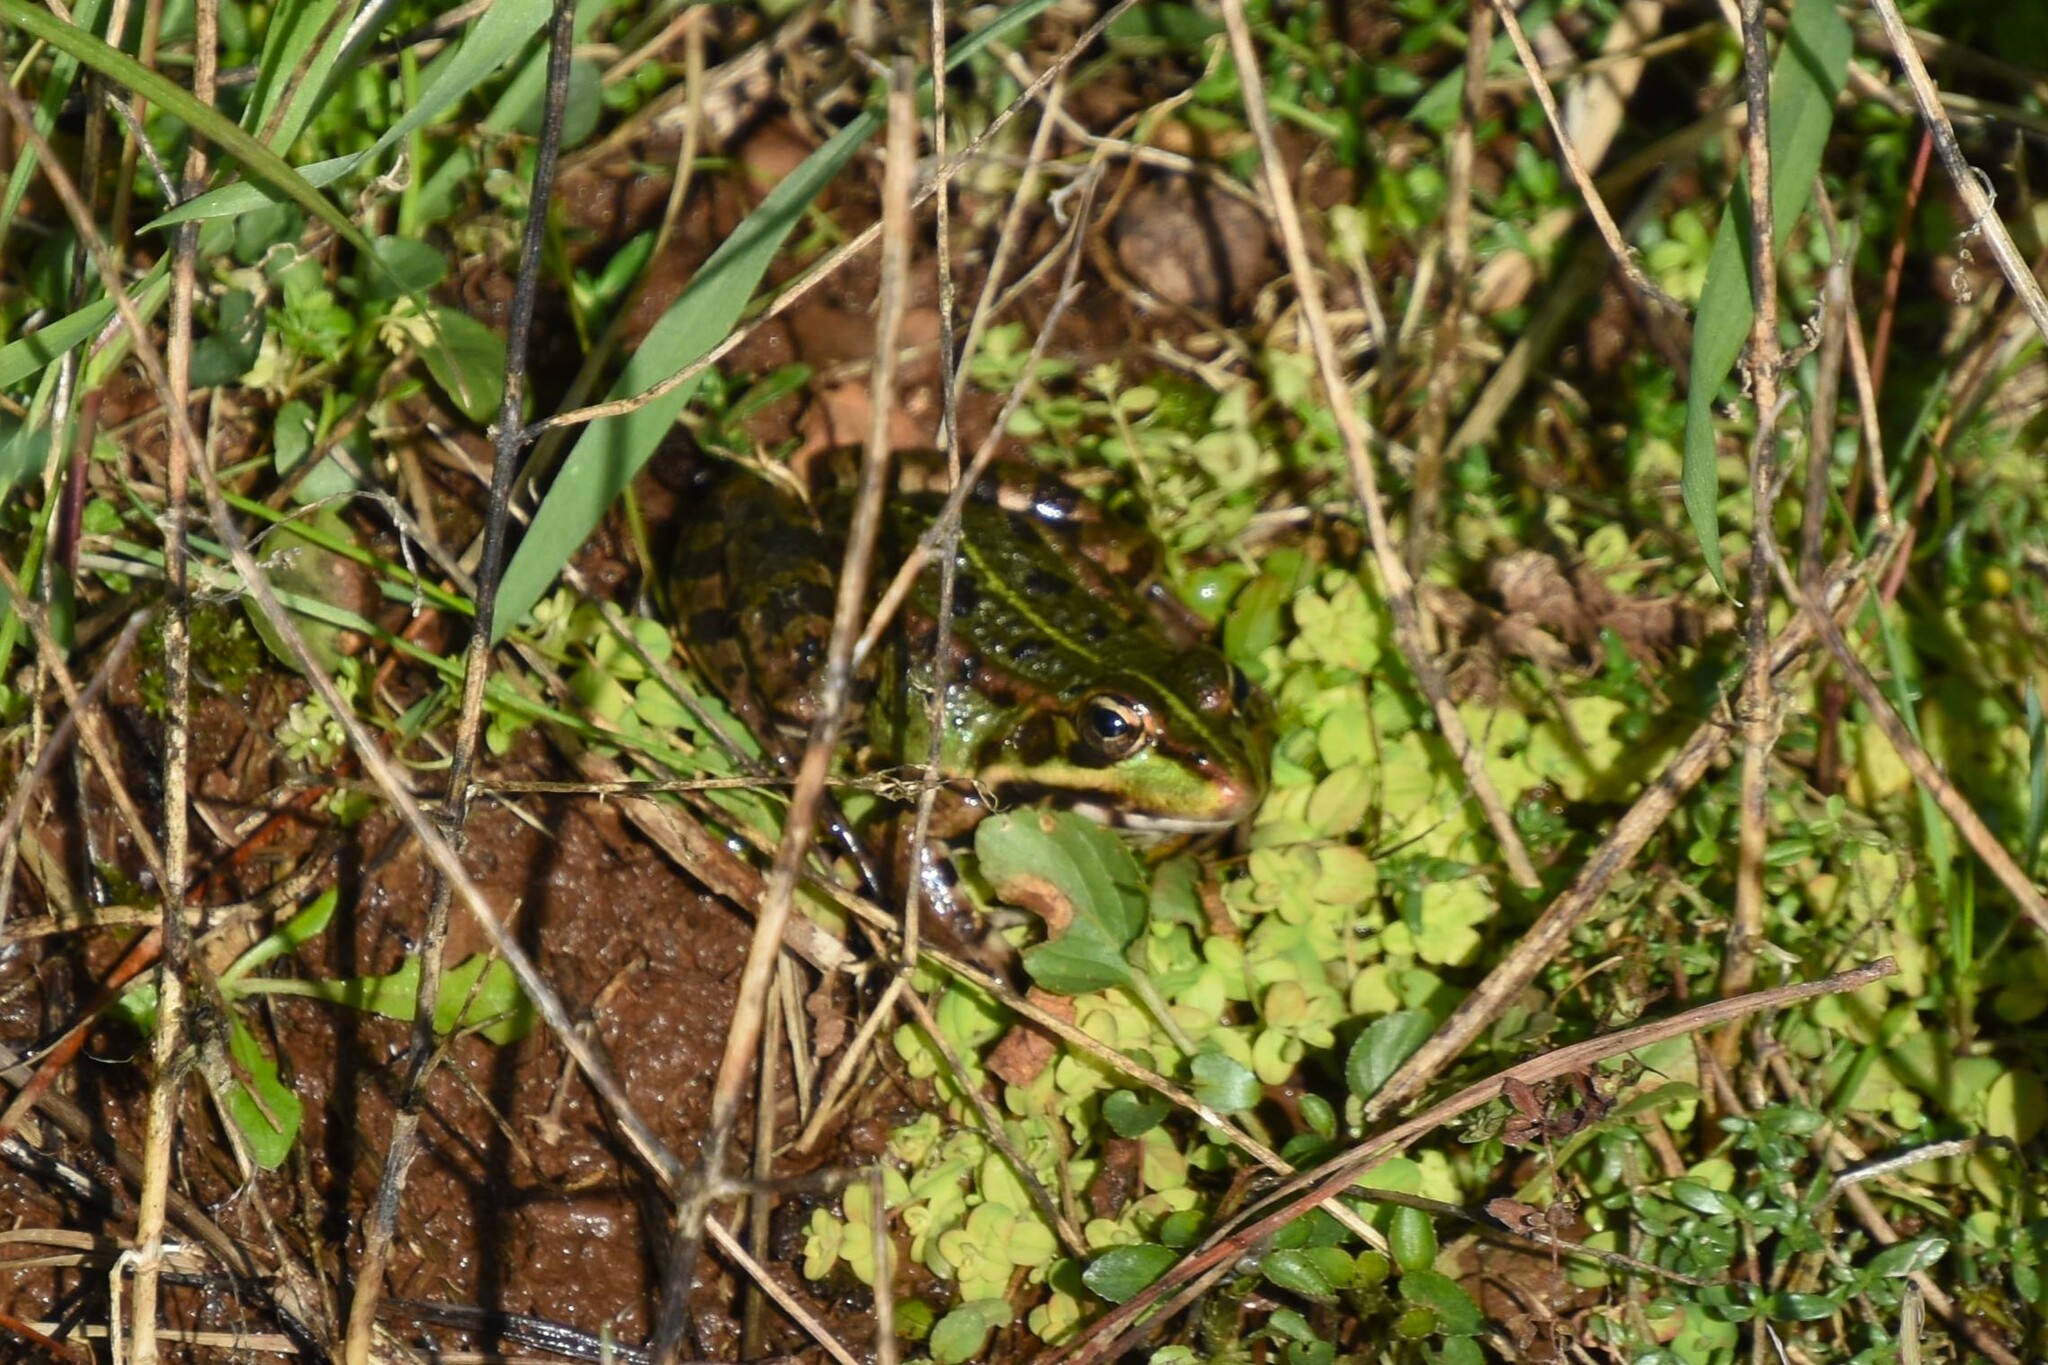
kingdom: Animalia
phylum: Chordata
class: Amphibia
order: Anura
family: Ranidae
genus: Pelophylax
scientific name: Pelophylax perezi
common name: Perez's frog
